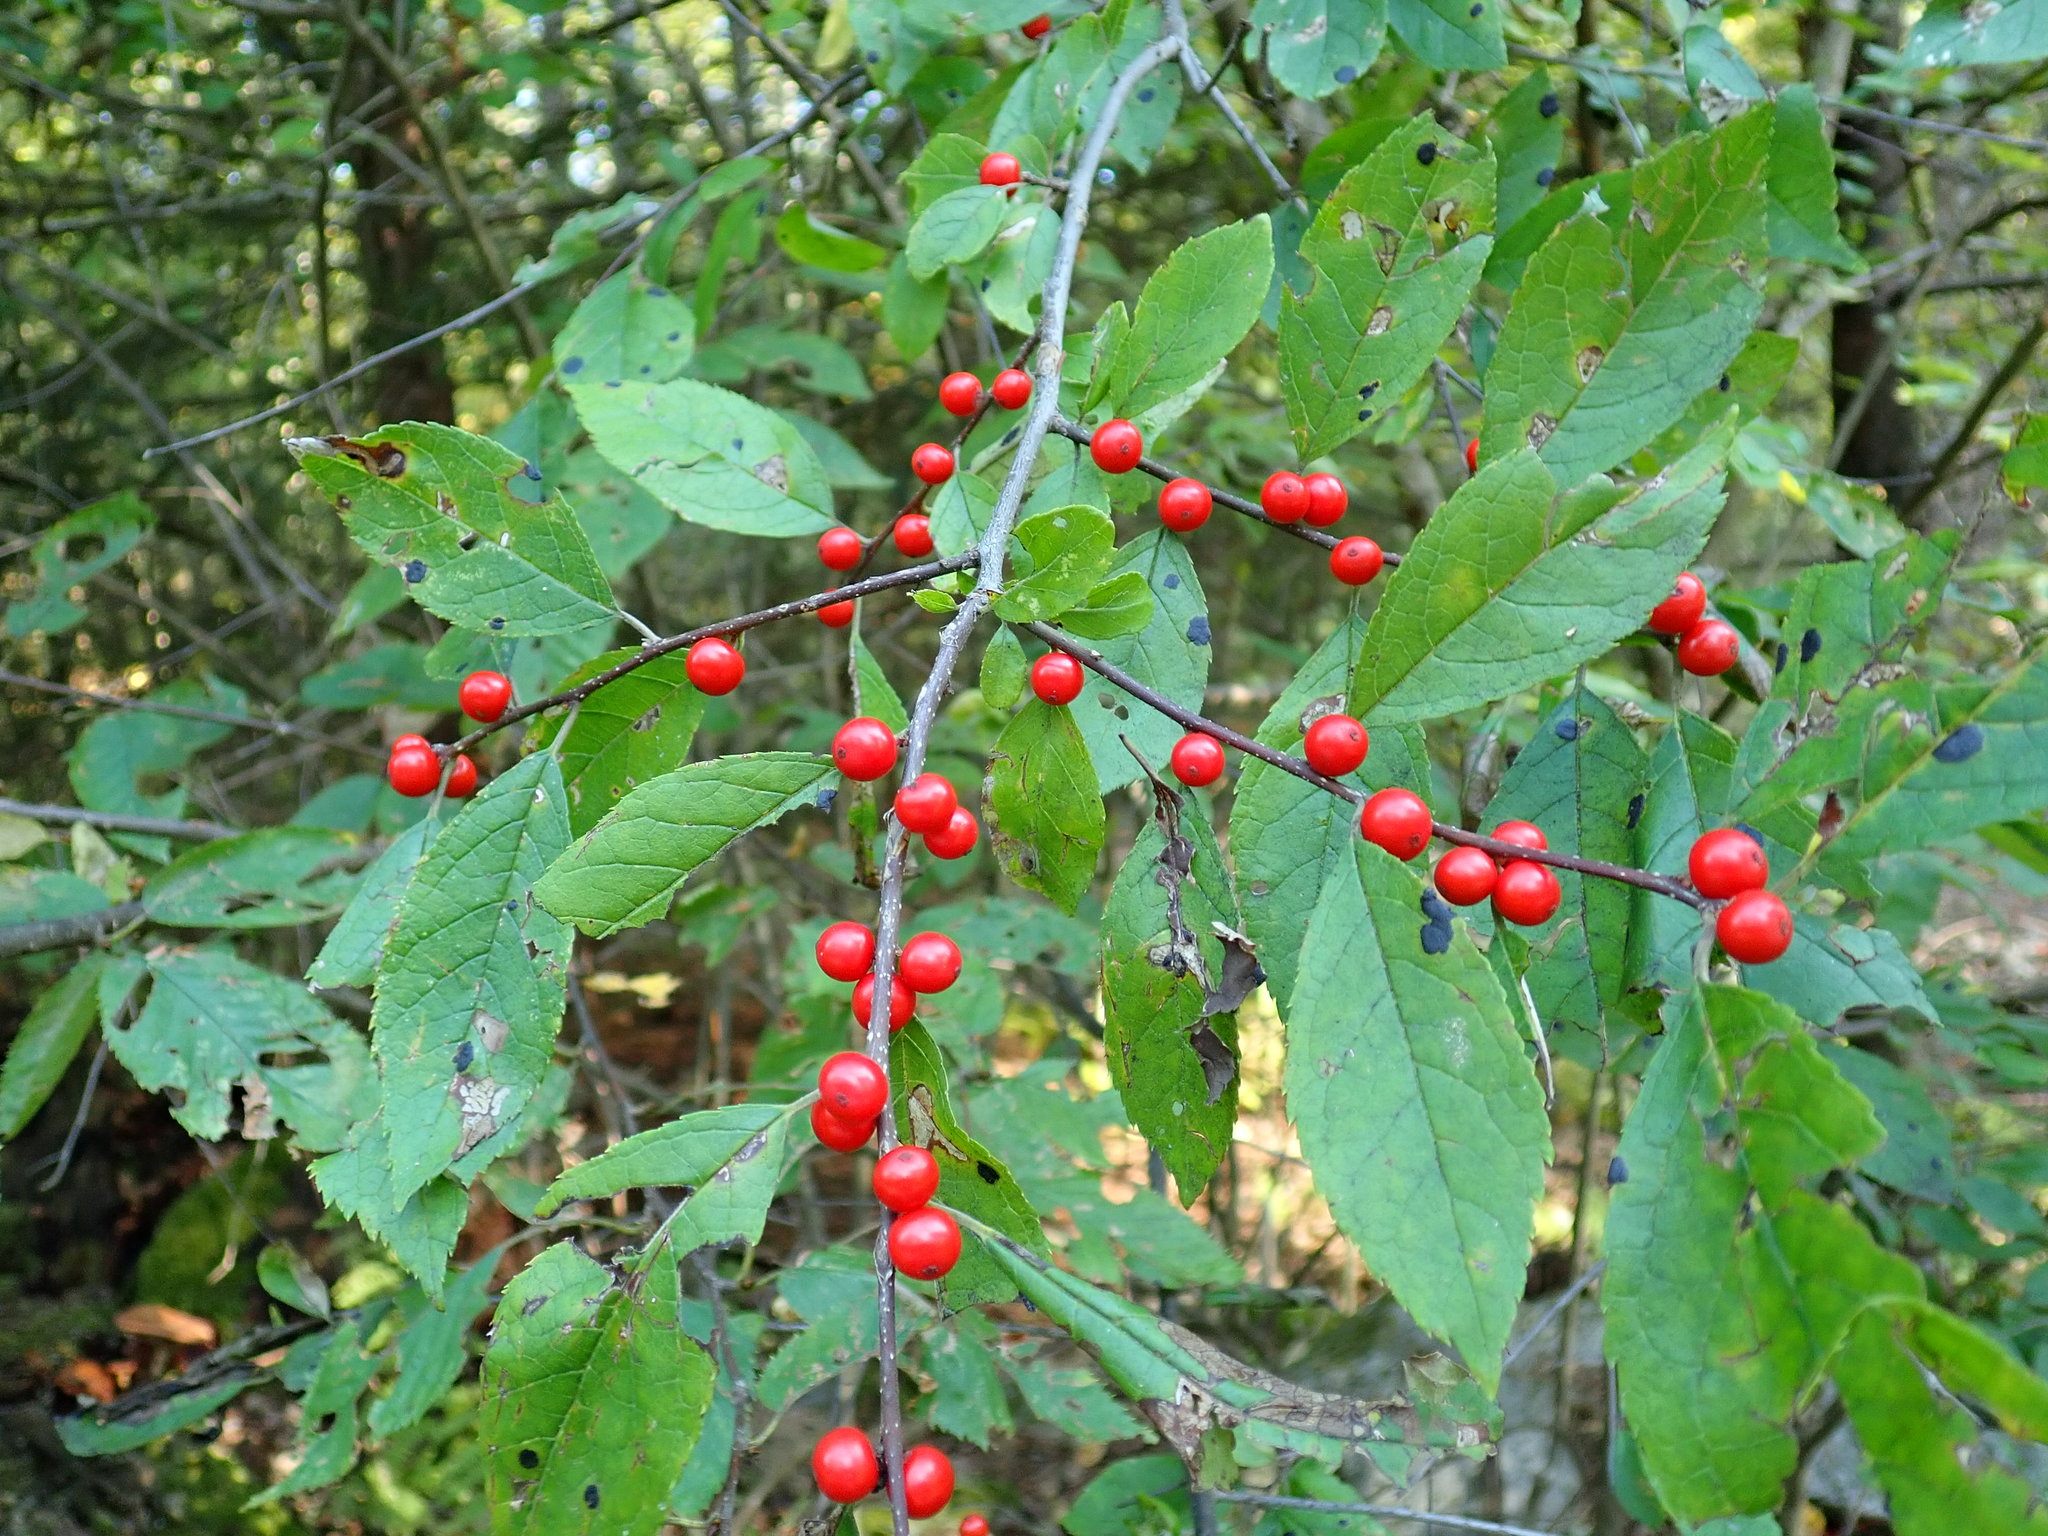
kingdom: Plantae
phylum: Tracheophyta
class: Magnoliopsida
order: Aquifoliales
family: Aquifoliaceae
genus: Ilex
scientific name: Ilex verticillata
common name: Virginia winterberry
